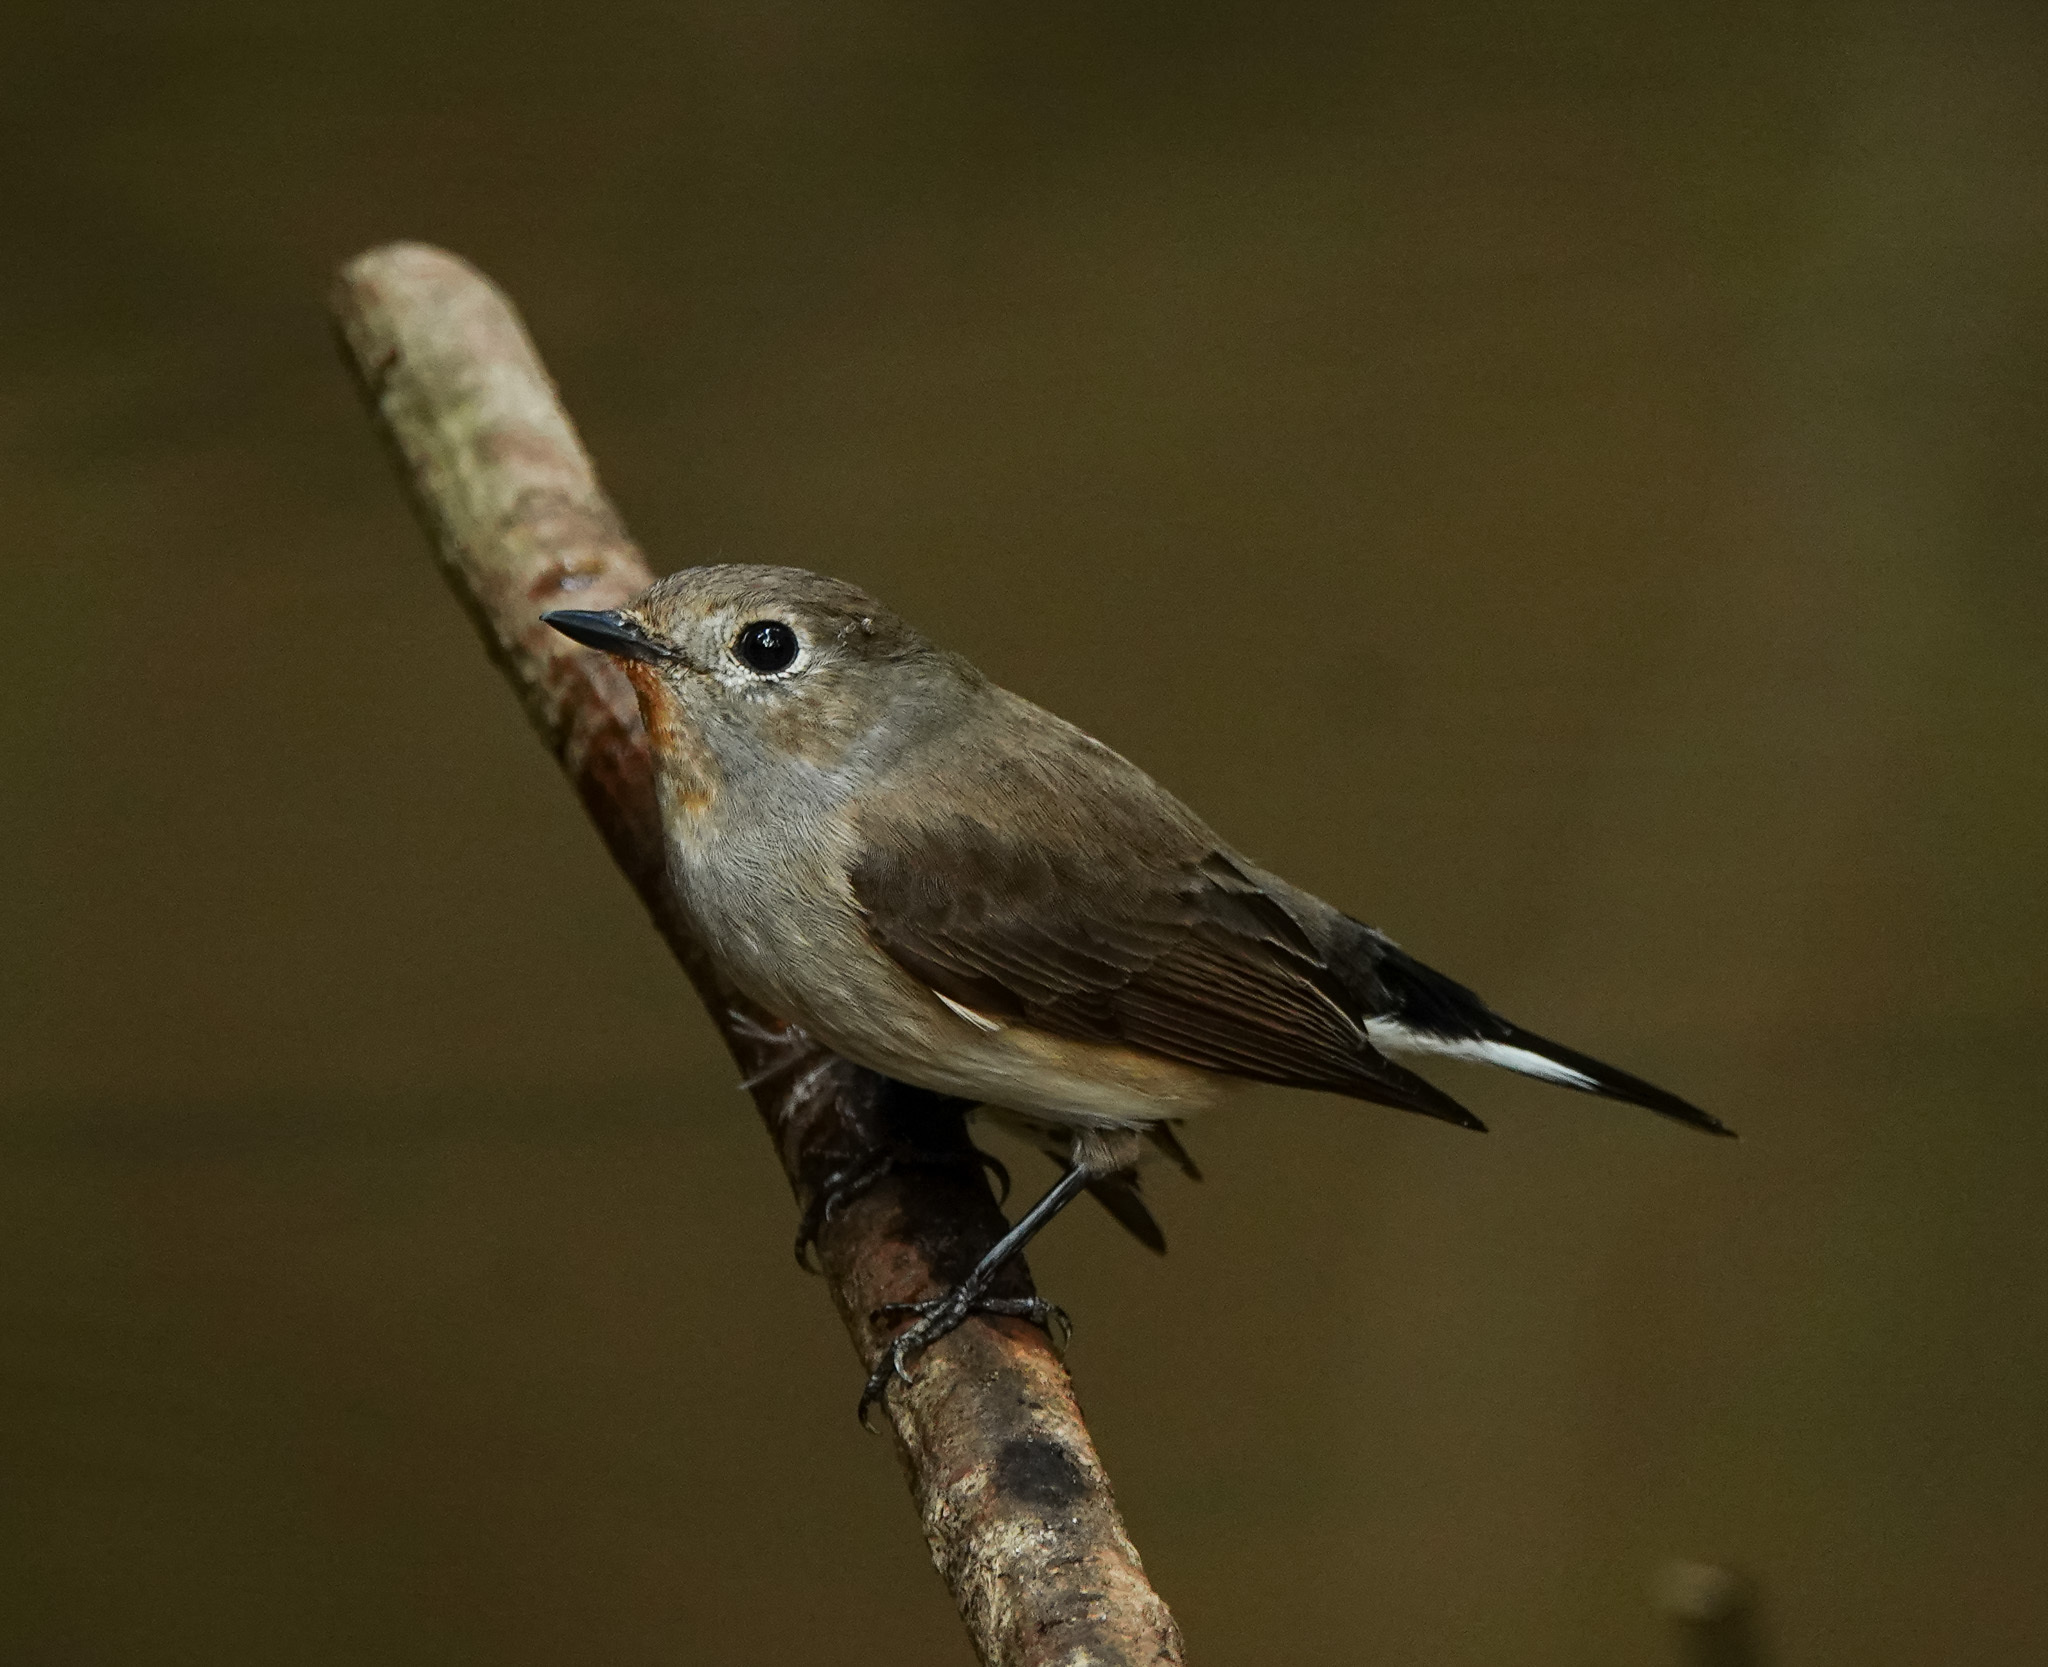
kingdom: Animalia
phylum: Chordata
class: Aves
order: Passeriformes
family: Muscicapidae
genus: Ficedula
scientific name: Ficedula albicilla
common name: Taiga flycatcher
